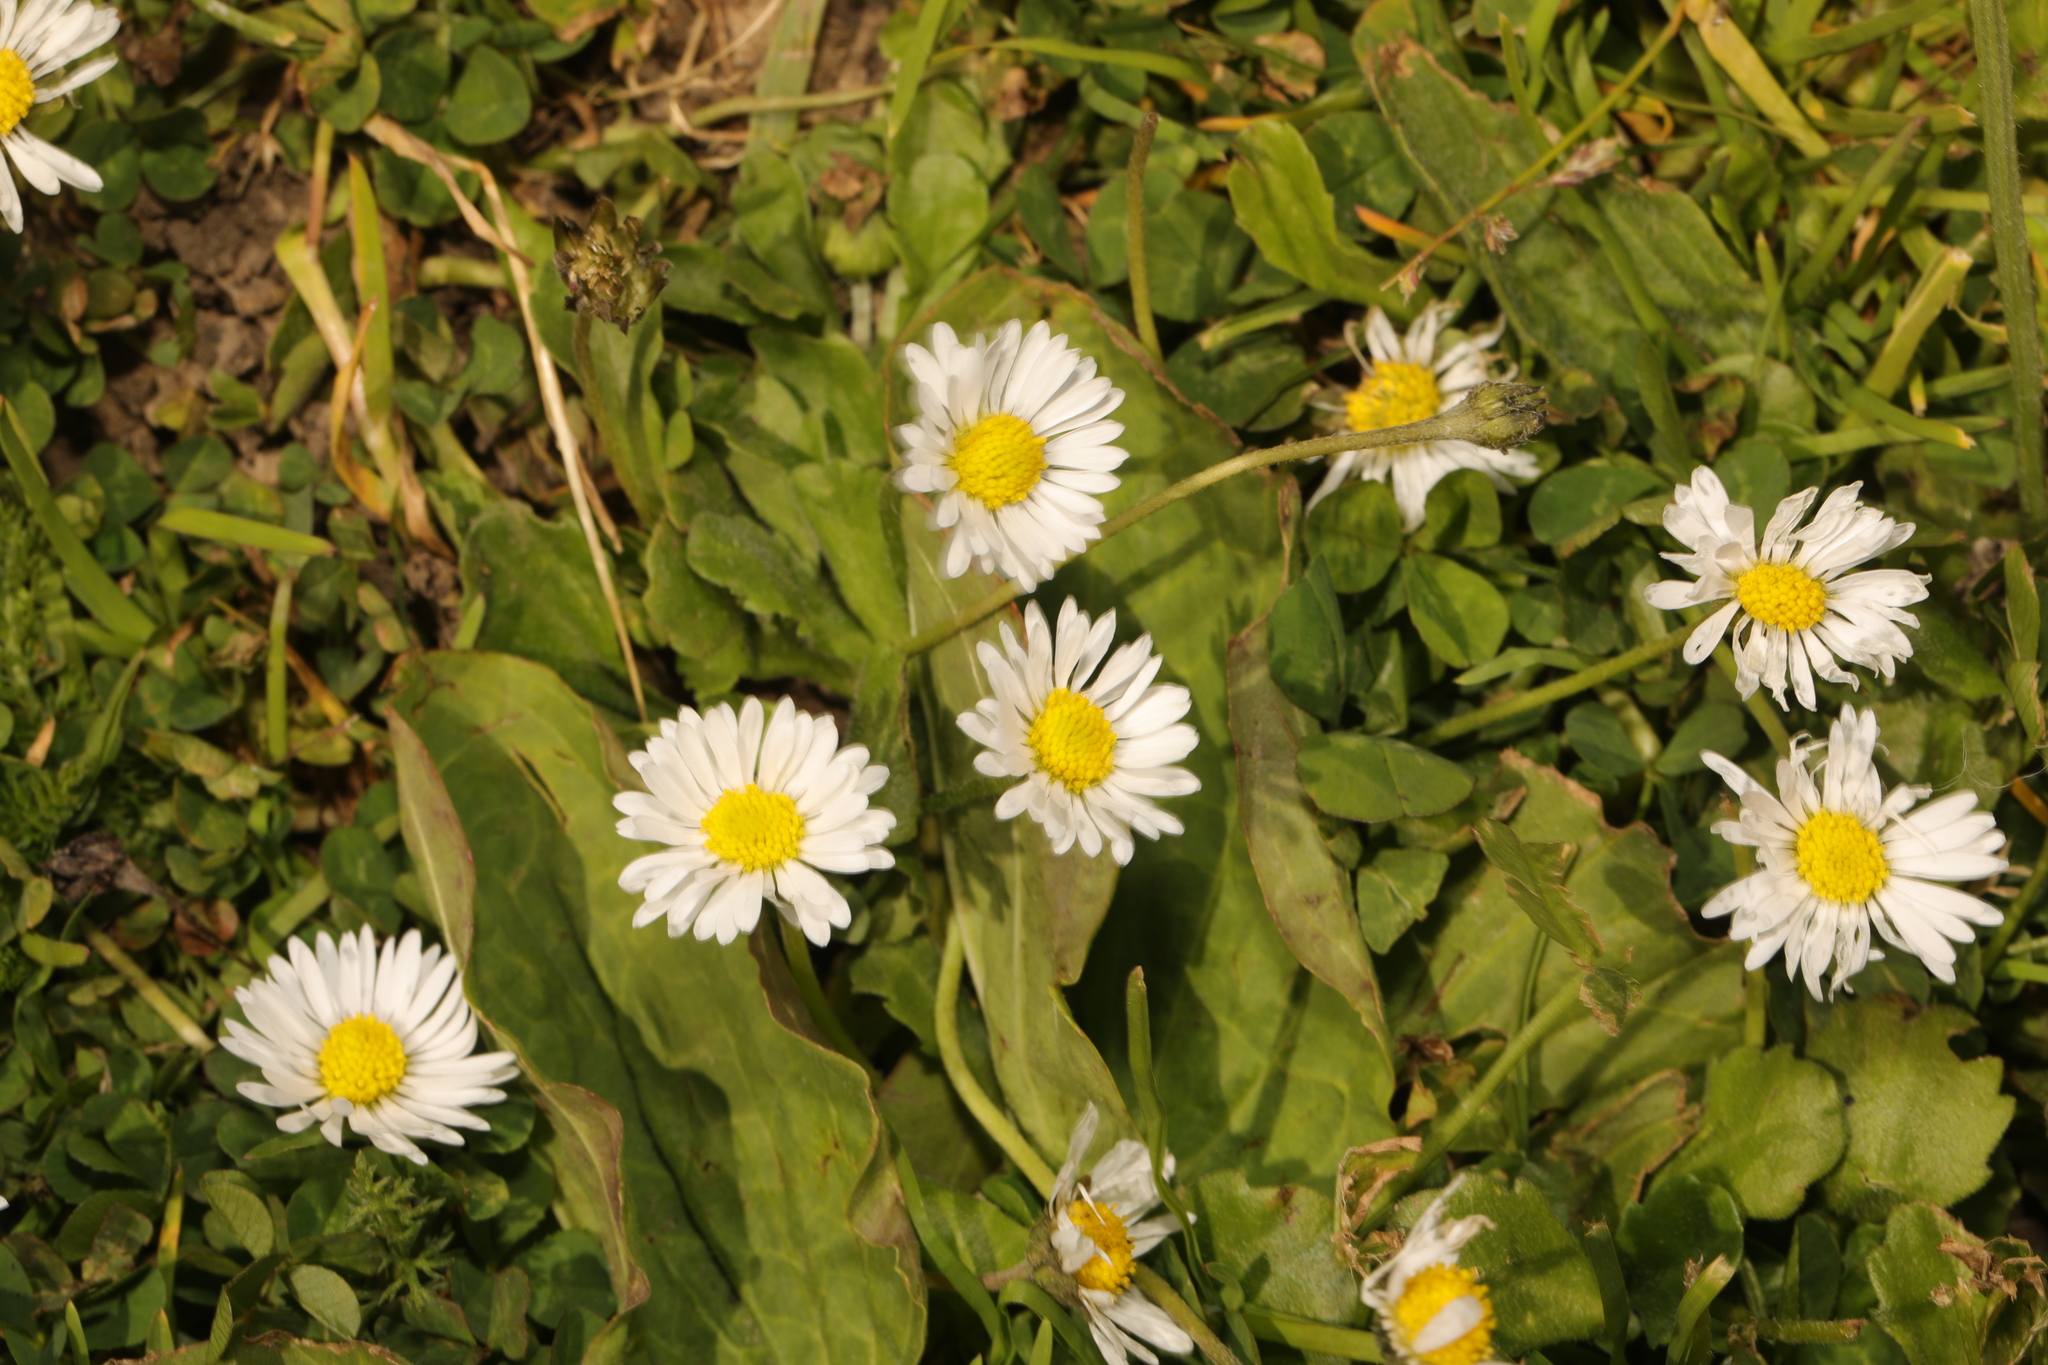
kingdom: Plantae
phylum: Tracheophyta
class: Magnoliopsida
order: Asterales
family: Asteraceae
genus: Bellis
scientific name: Bellis perennis
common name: Lawndaisy
